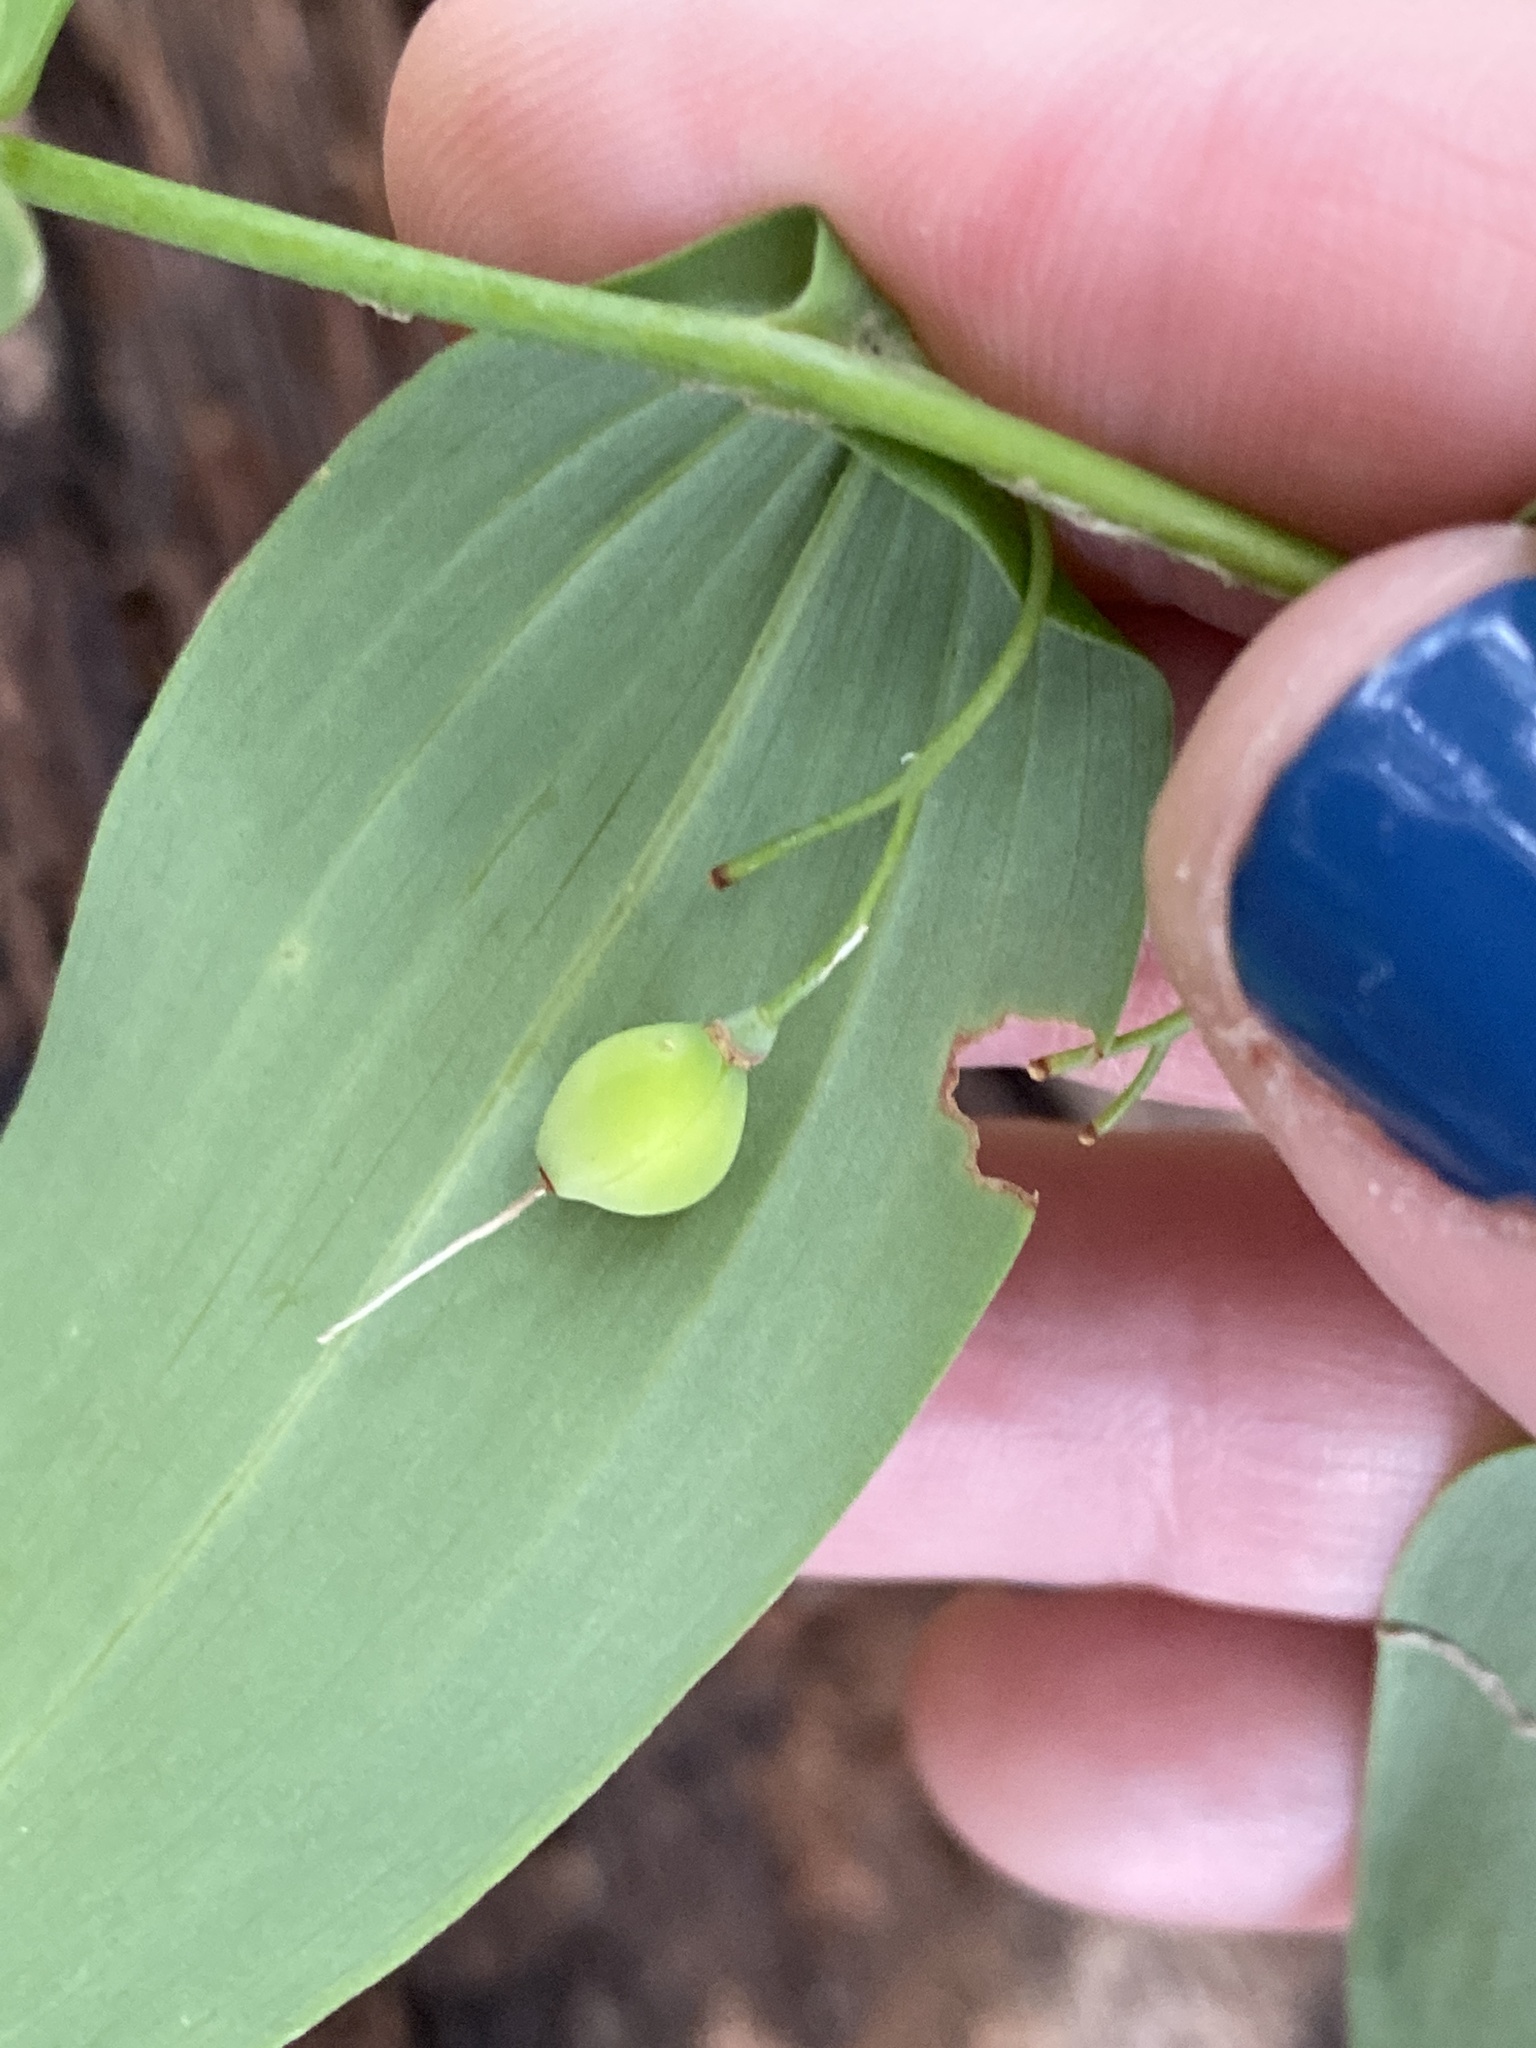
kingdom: Plantae
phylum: Tracheophyta
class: Liliopsida
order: Asparagales
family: Asparagaceae
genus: Polygonatum
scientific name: Polygonatum biflorum
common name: American solomon's-seal
